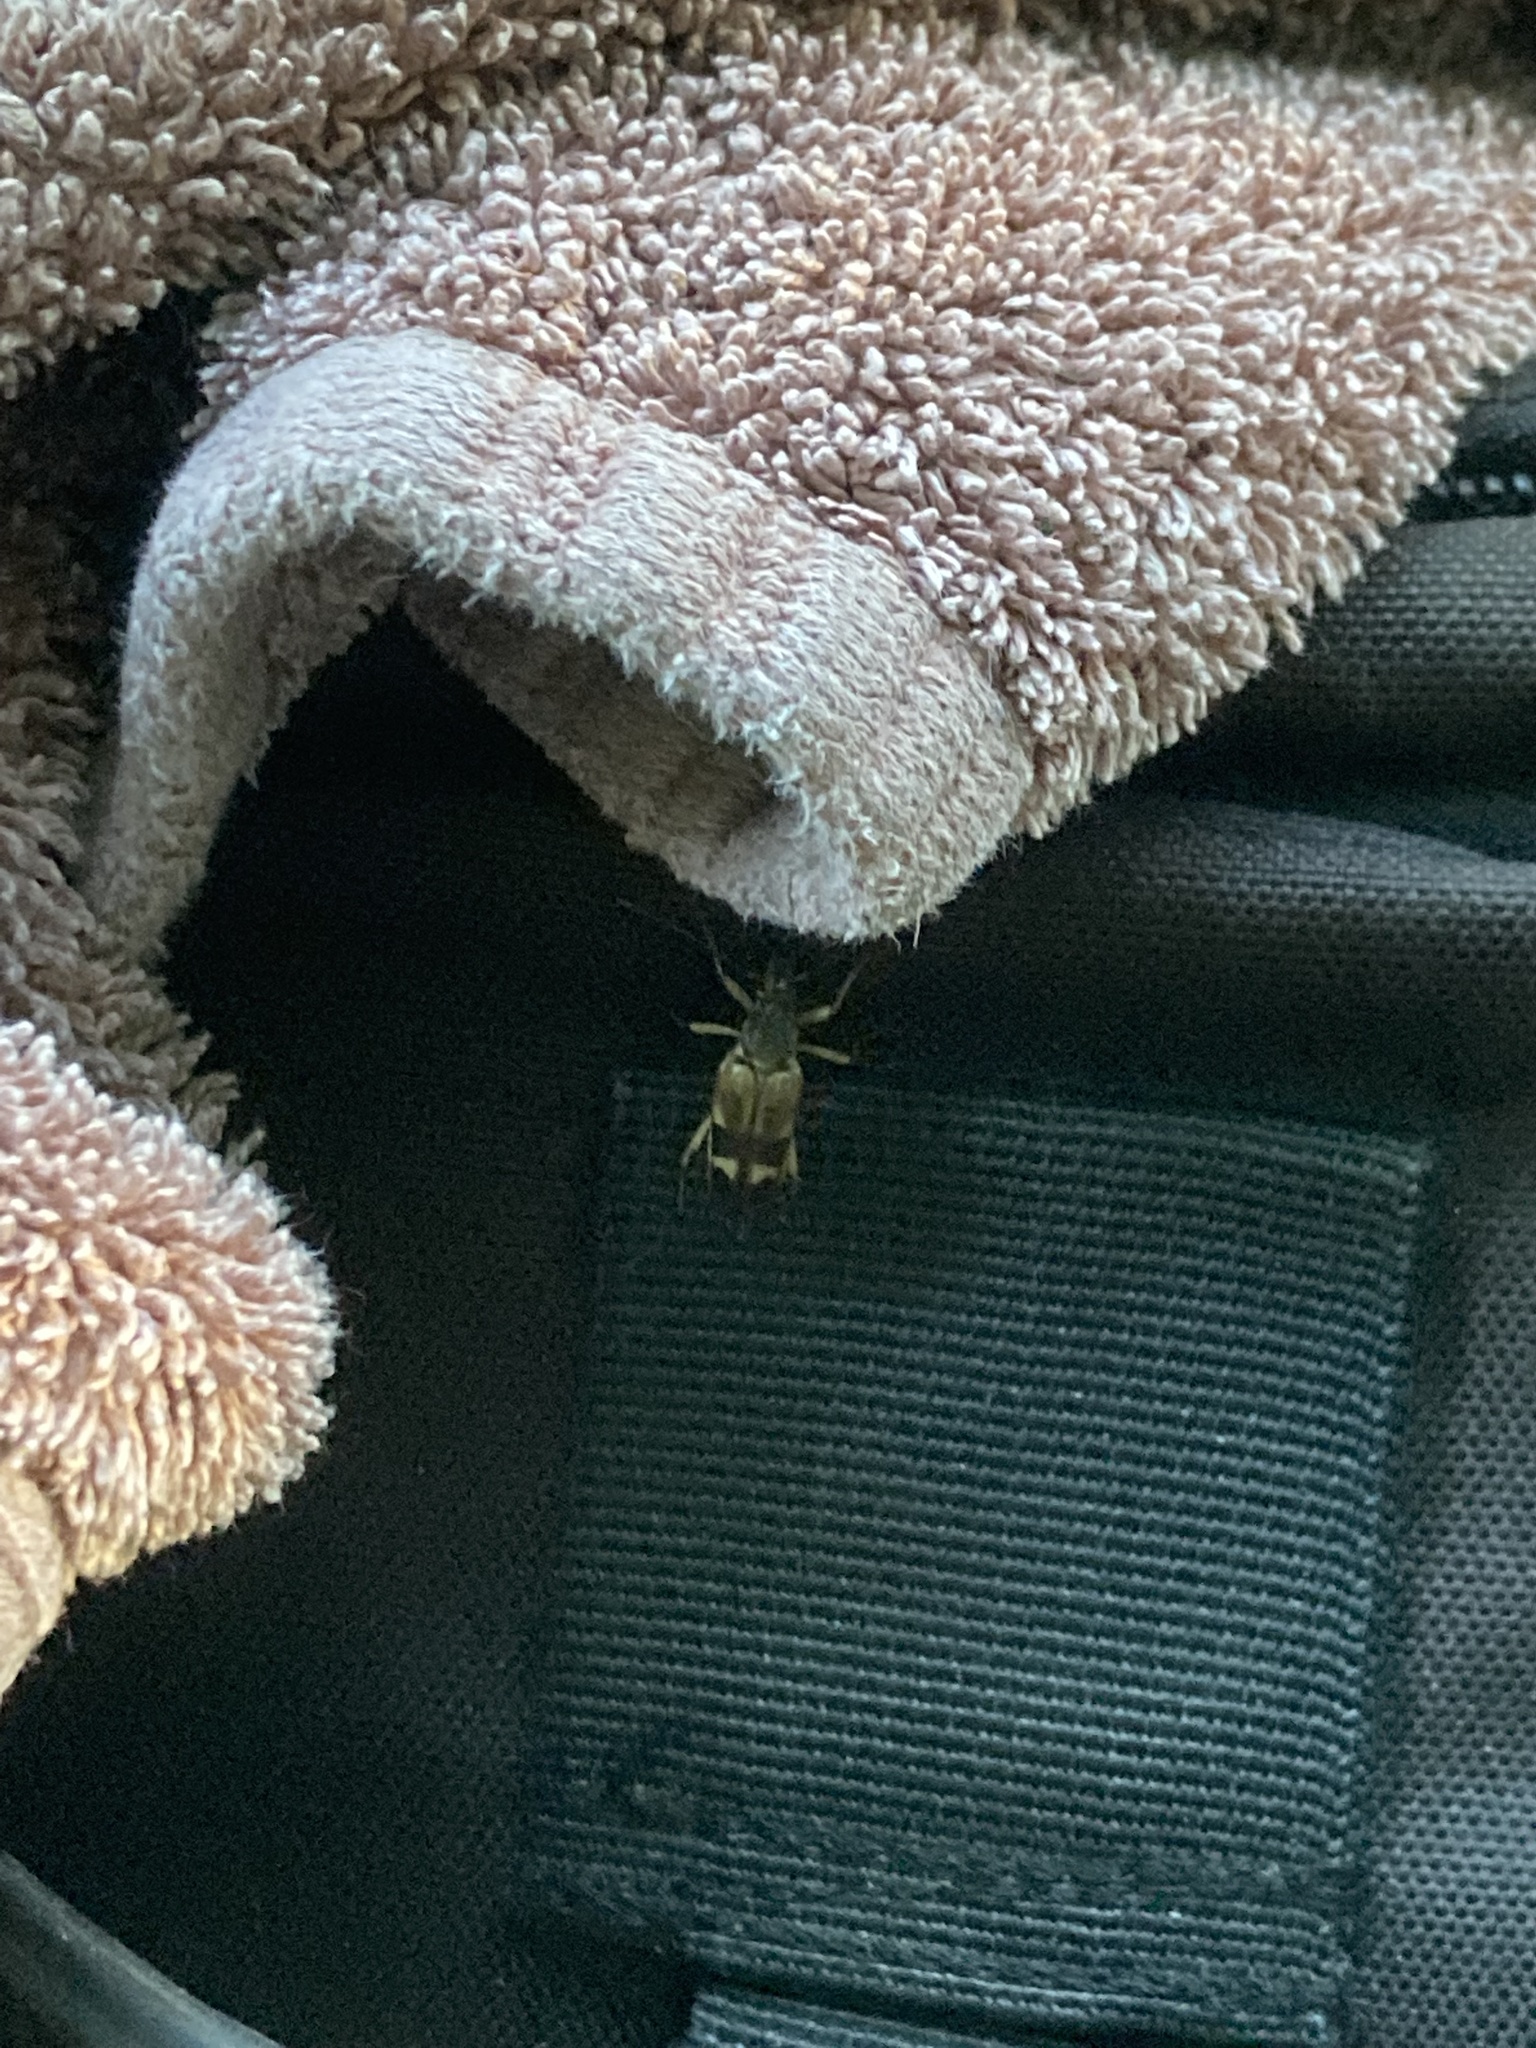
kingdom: Animalia
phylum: Arthropoda
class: Insecta
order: Coleoptera
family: Cerambycidae
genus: Etorofus
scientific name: Etorofus obliteratus
